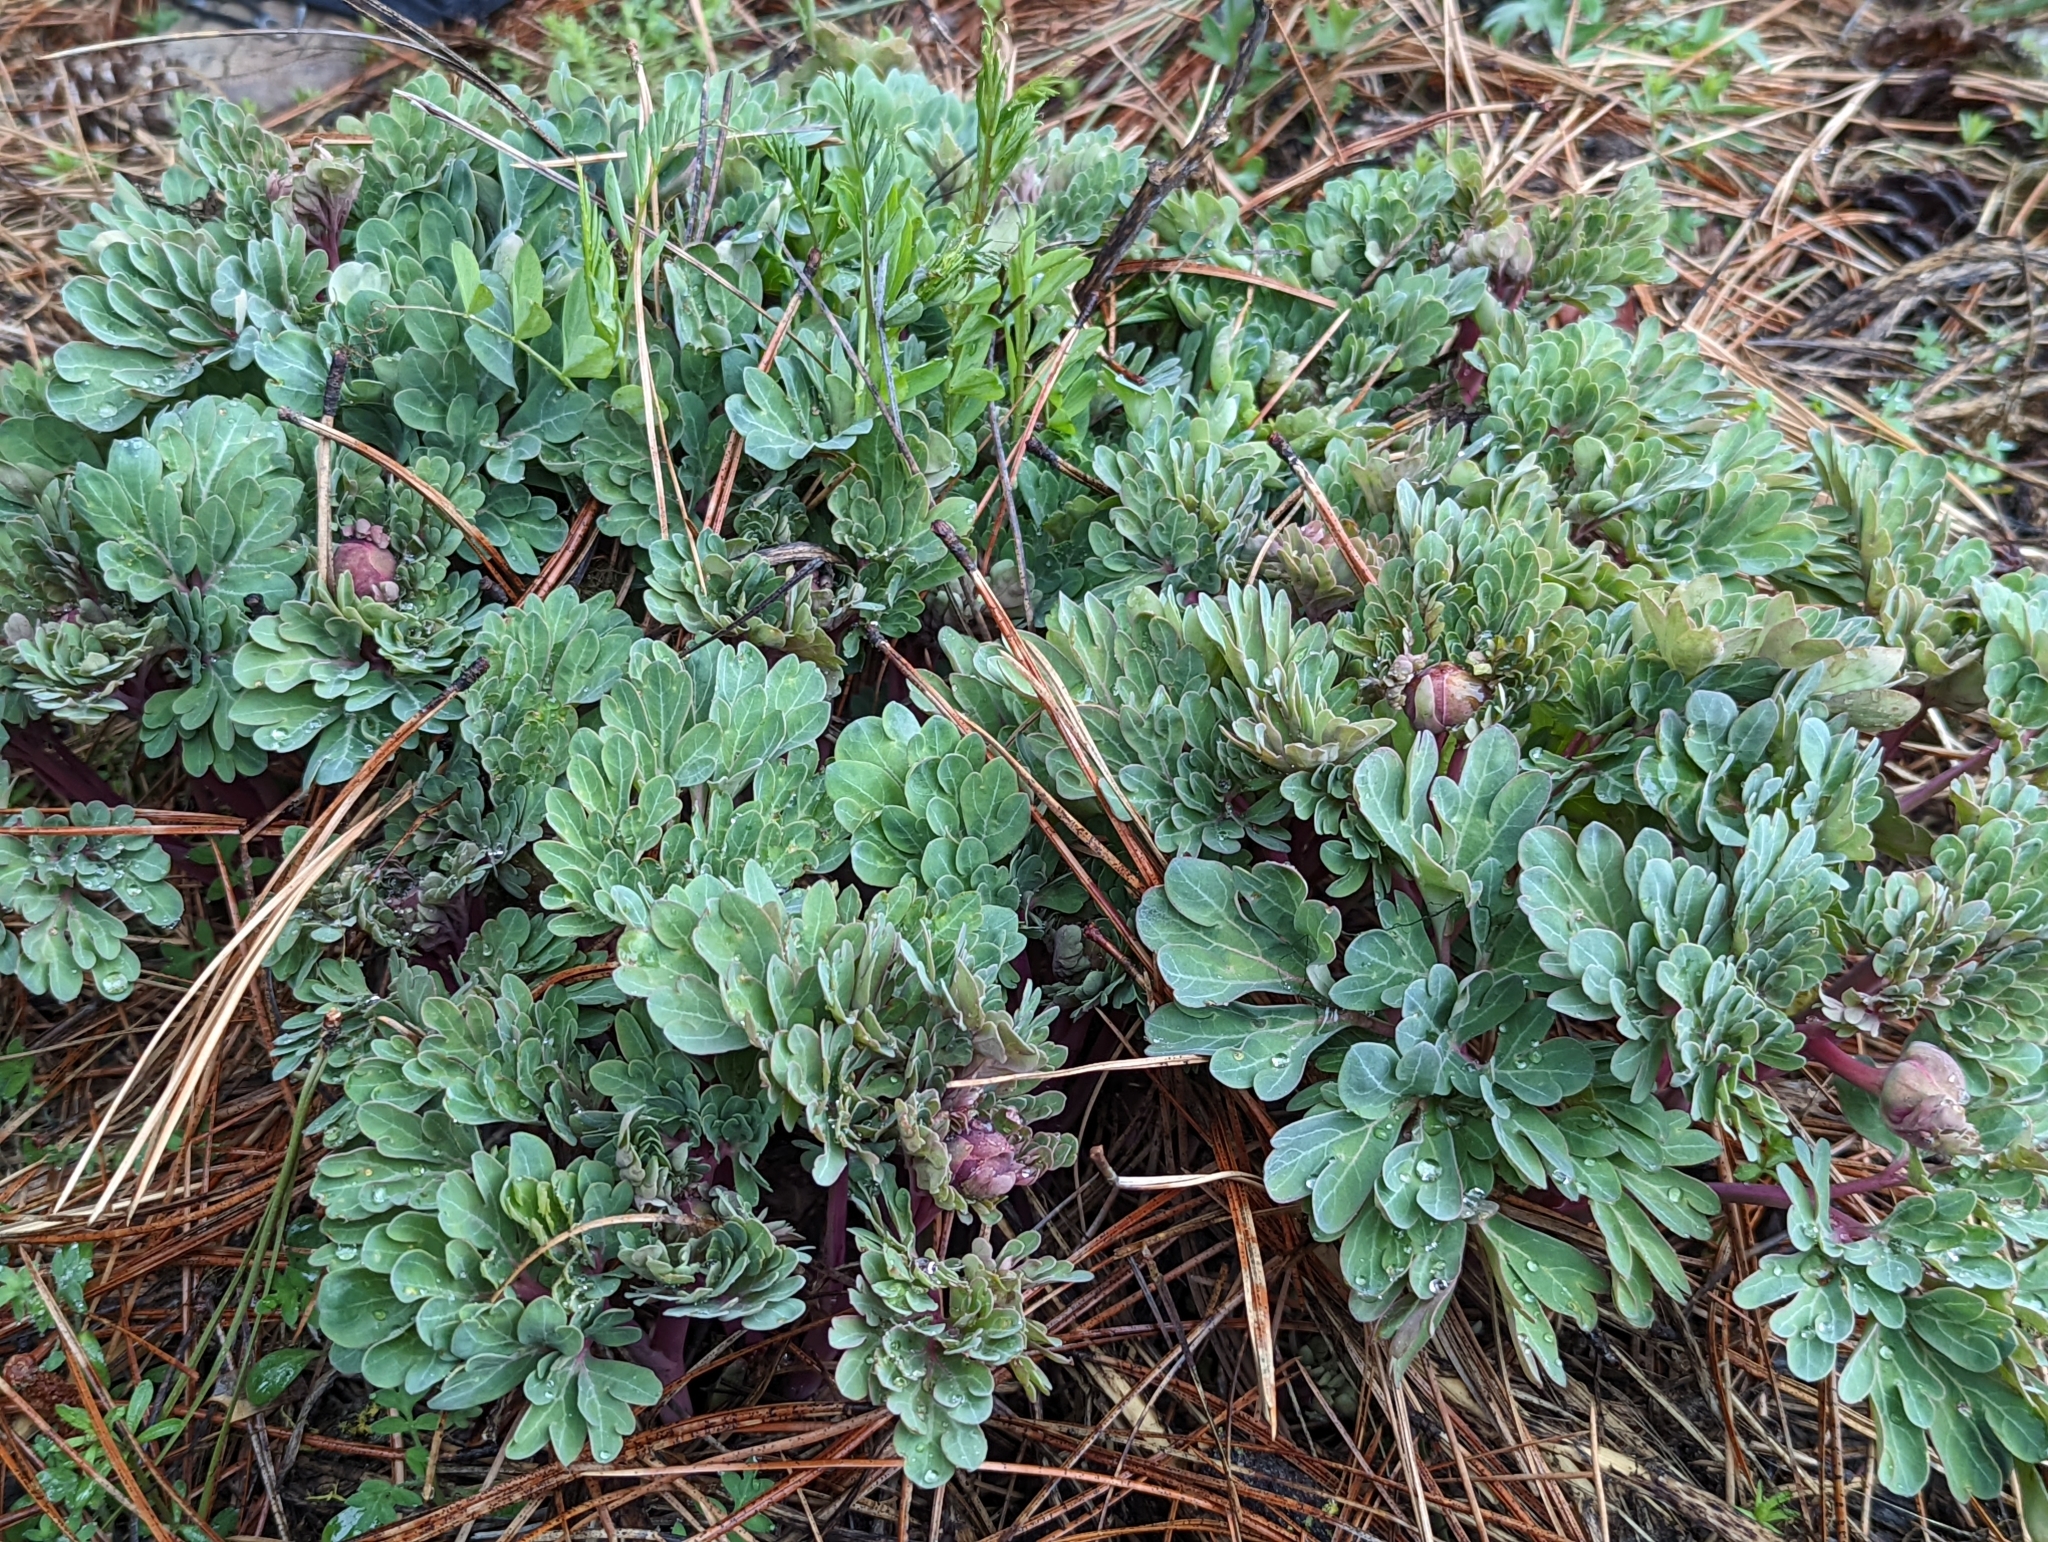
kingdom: Plantae
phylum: Tracheophyta
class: Magnoliopsida
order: Saxifragales
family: Paeoniaceae
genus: Paeonia
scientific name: Paeonia brownii
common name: Brown's peony
